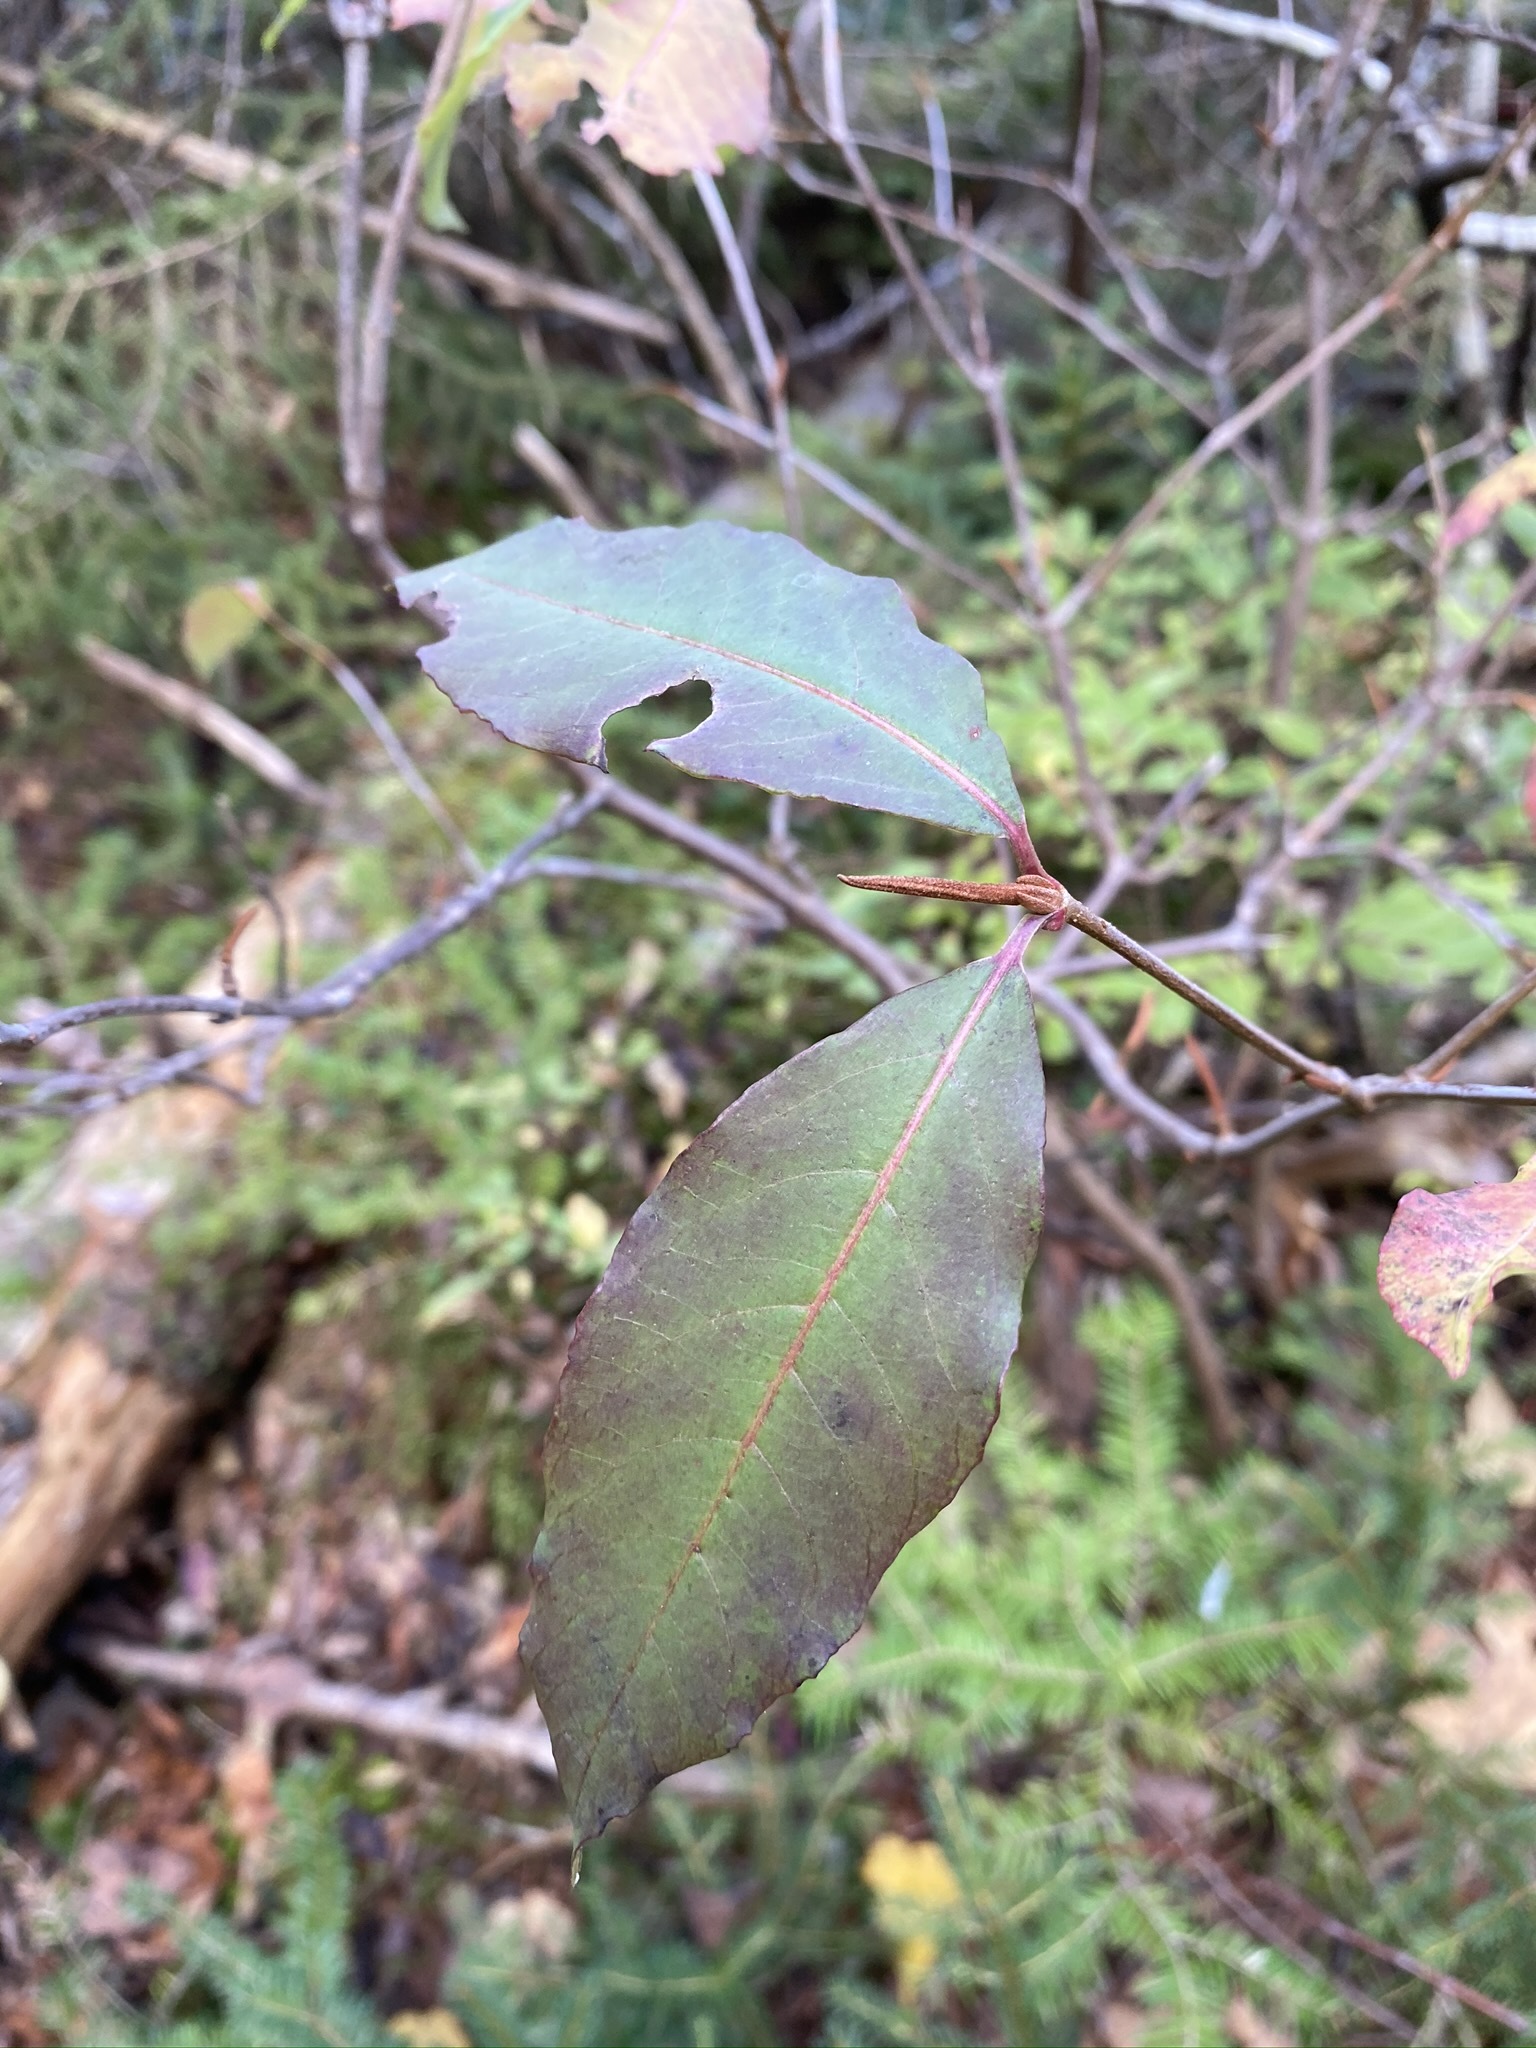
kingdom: Plantae
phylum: Tracheophyta
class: Magnoliopsida
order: Dipsacales
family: Viburnaceae
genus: Viburnum
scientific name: Viburnum cassinoides
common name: Swamp haw
